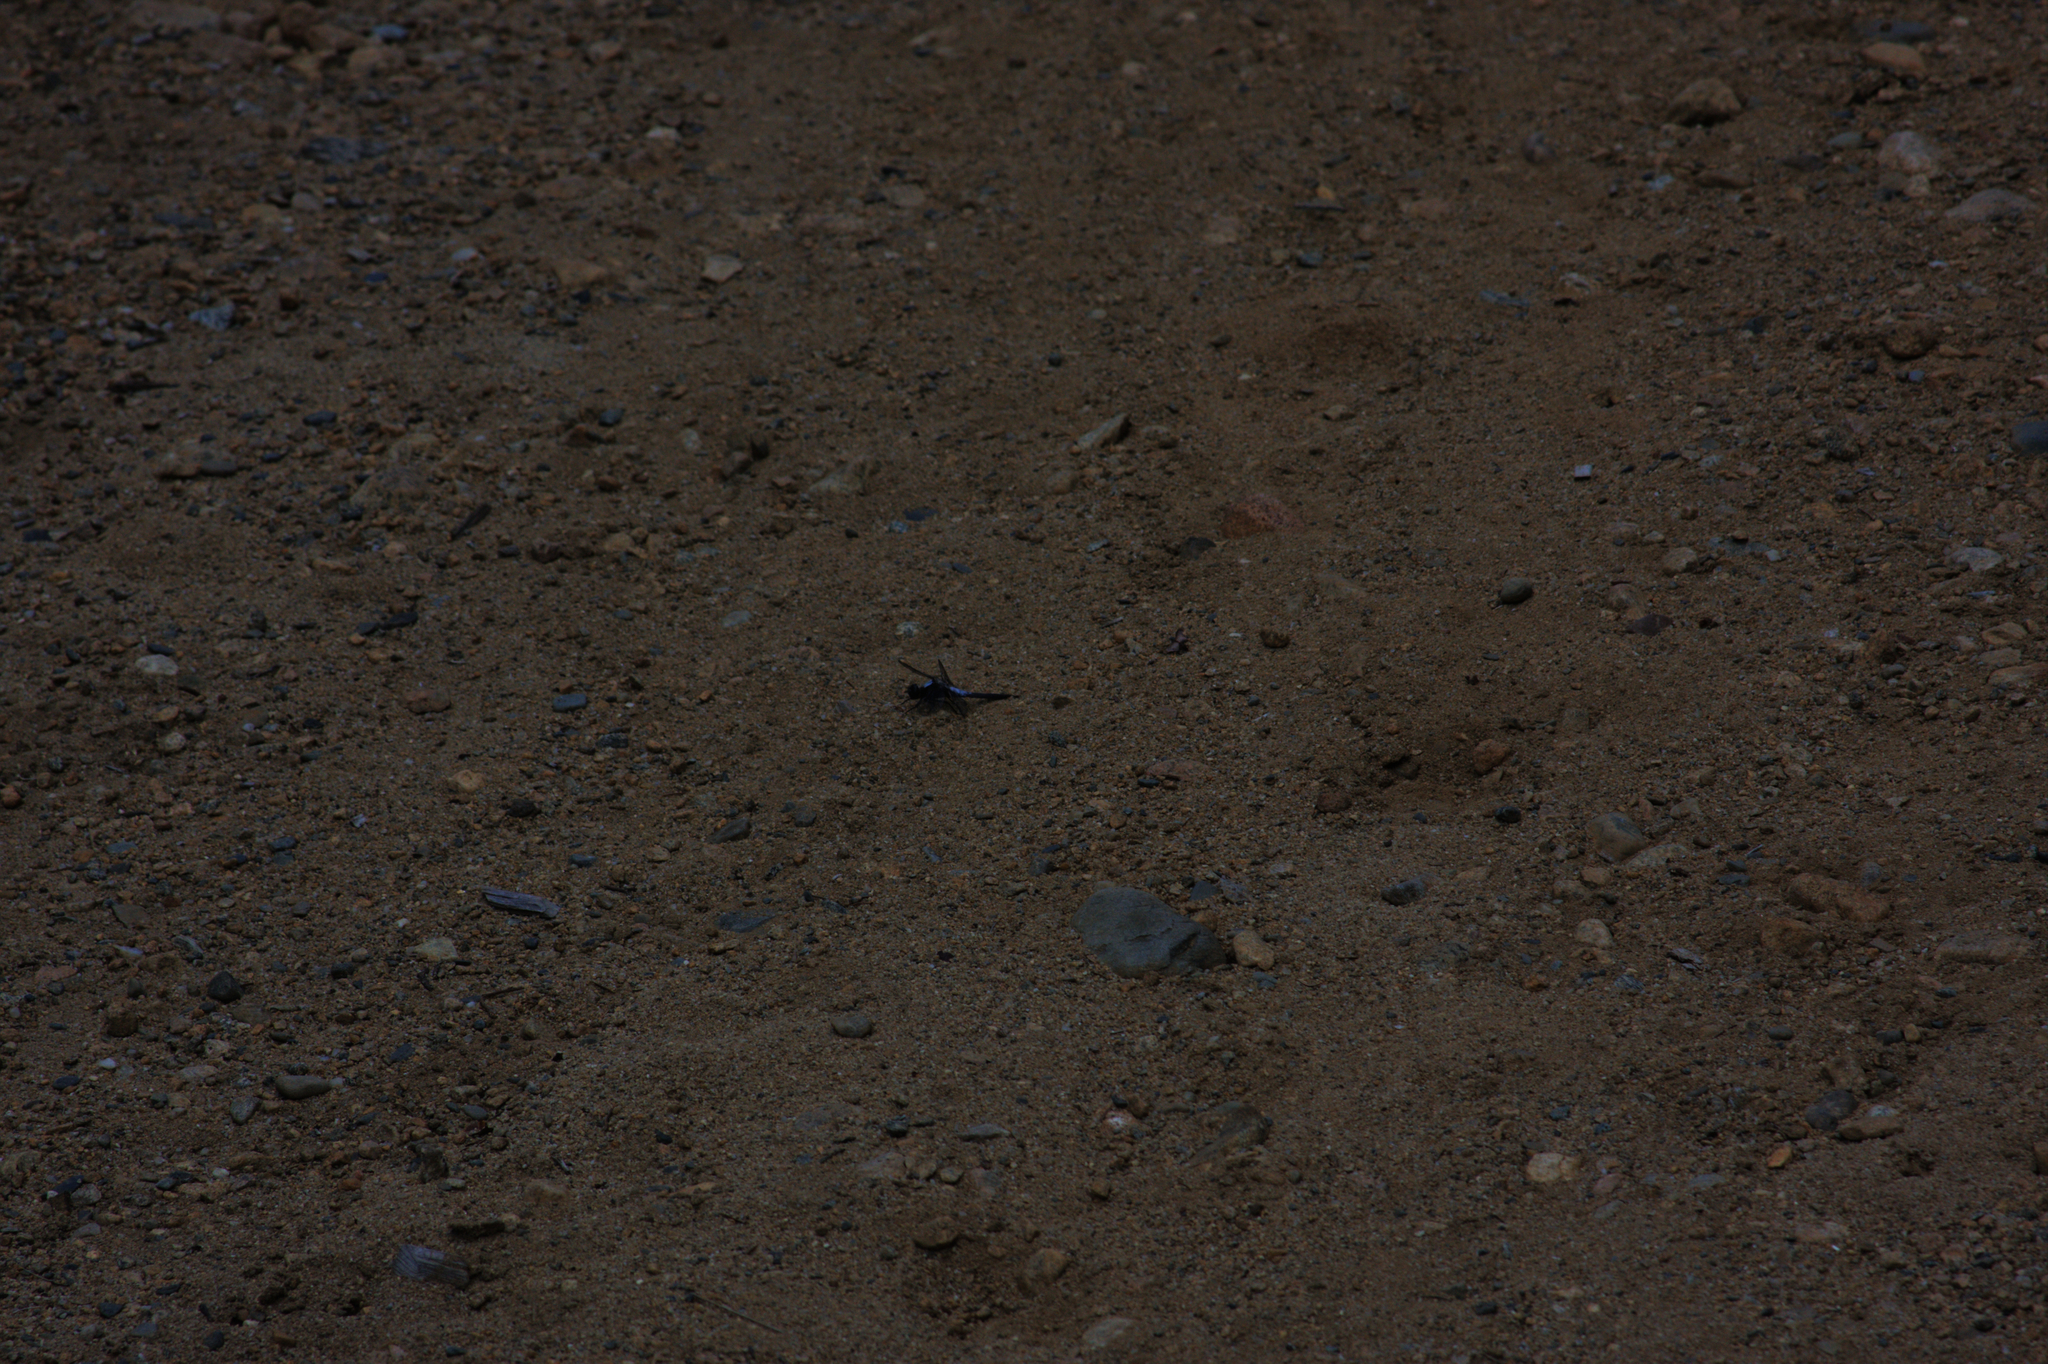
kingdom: Animalia
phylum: Arthropoda
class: Insecta
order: Odonata
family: Libellulidae
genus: Ladona
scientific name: Ladona julia
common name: Chalk-fronted corporal
